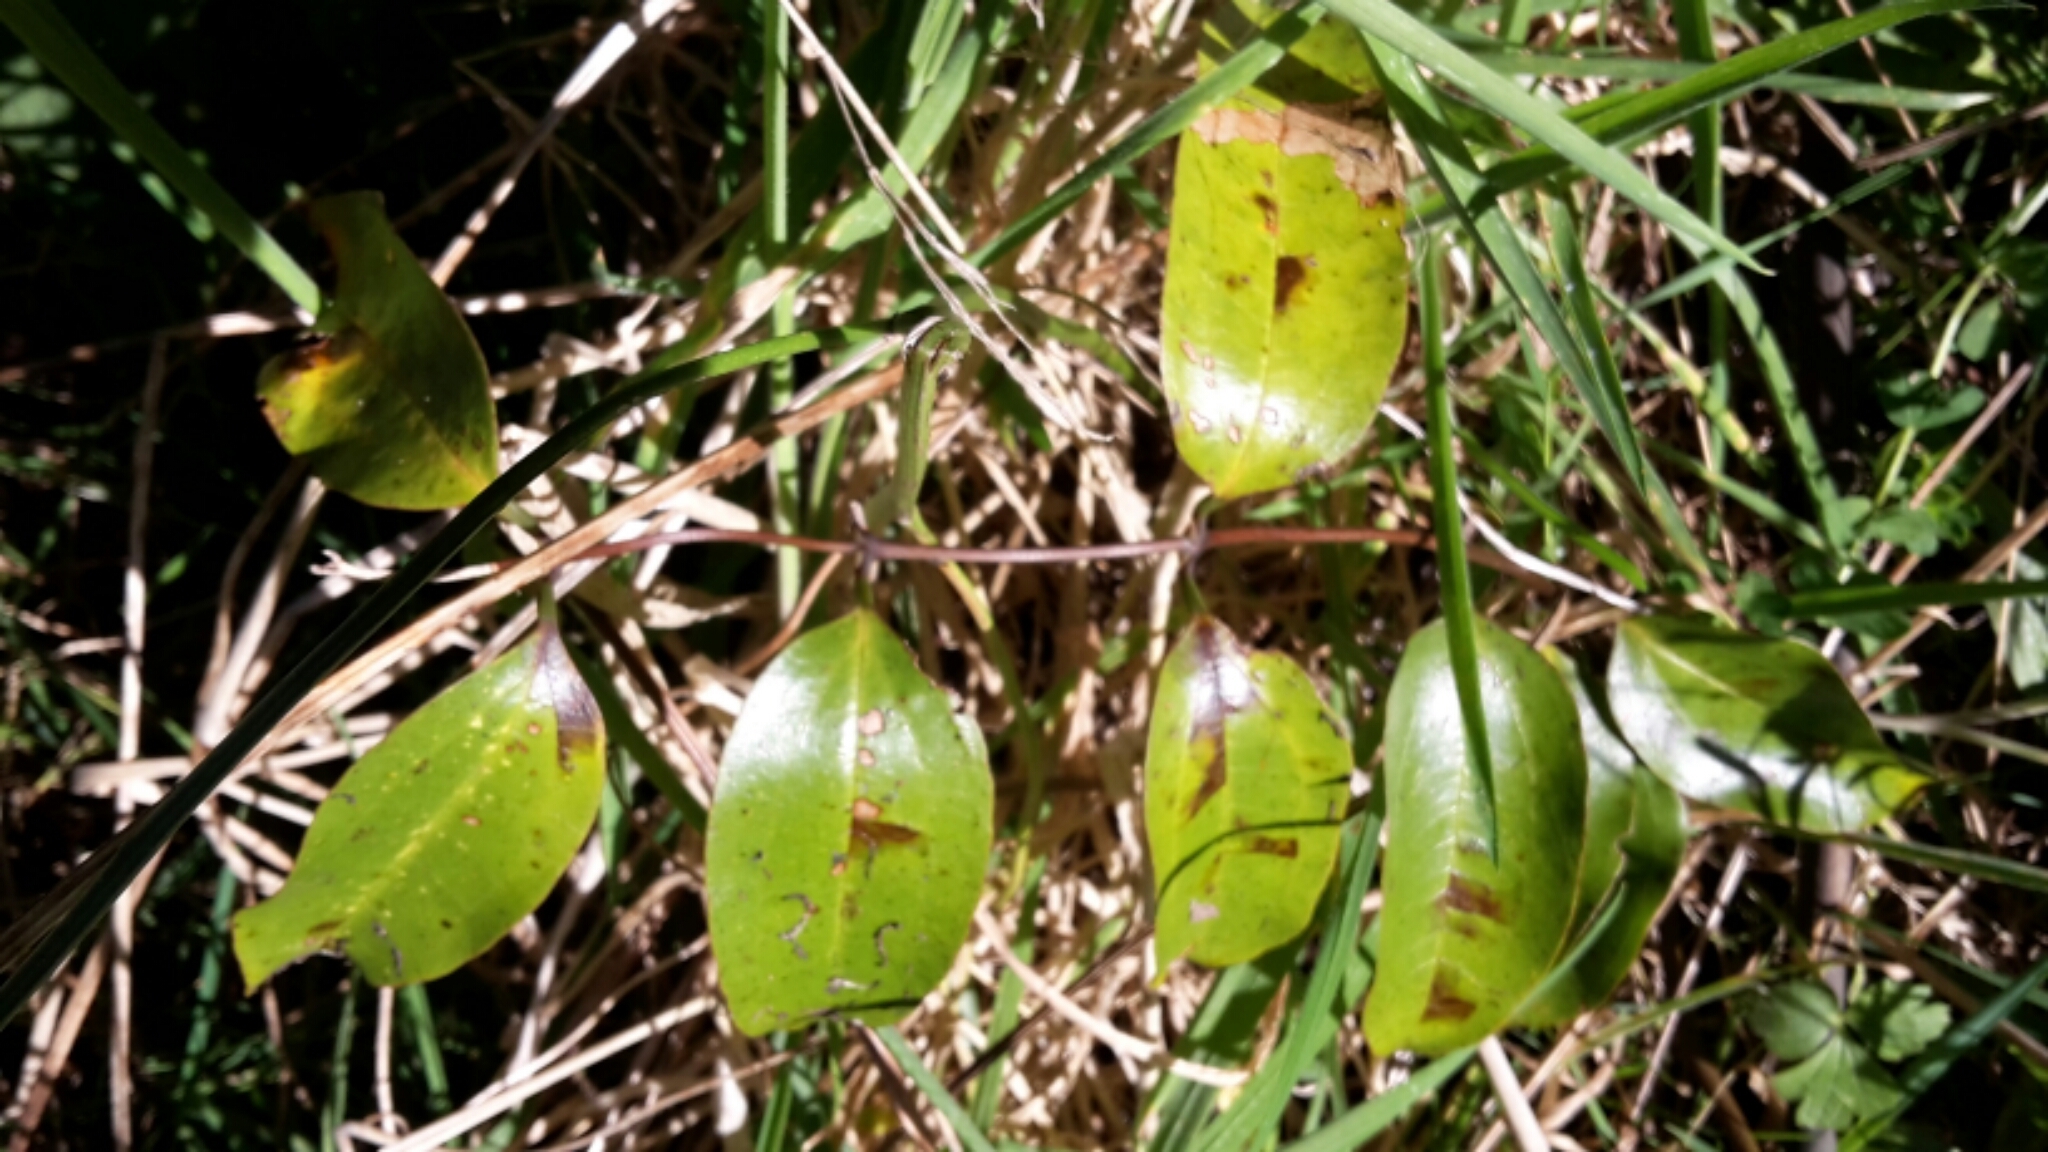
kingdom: Plantae
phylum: Tracheophyta
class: Liliopsida
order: Liliales
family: Ripogonaceae
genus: Ripogonum
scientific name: Ripogonum scandens
